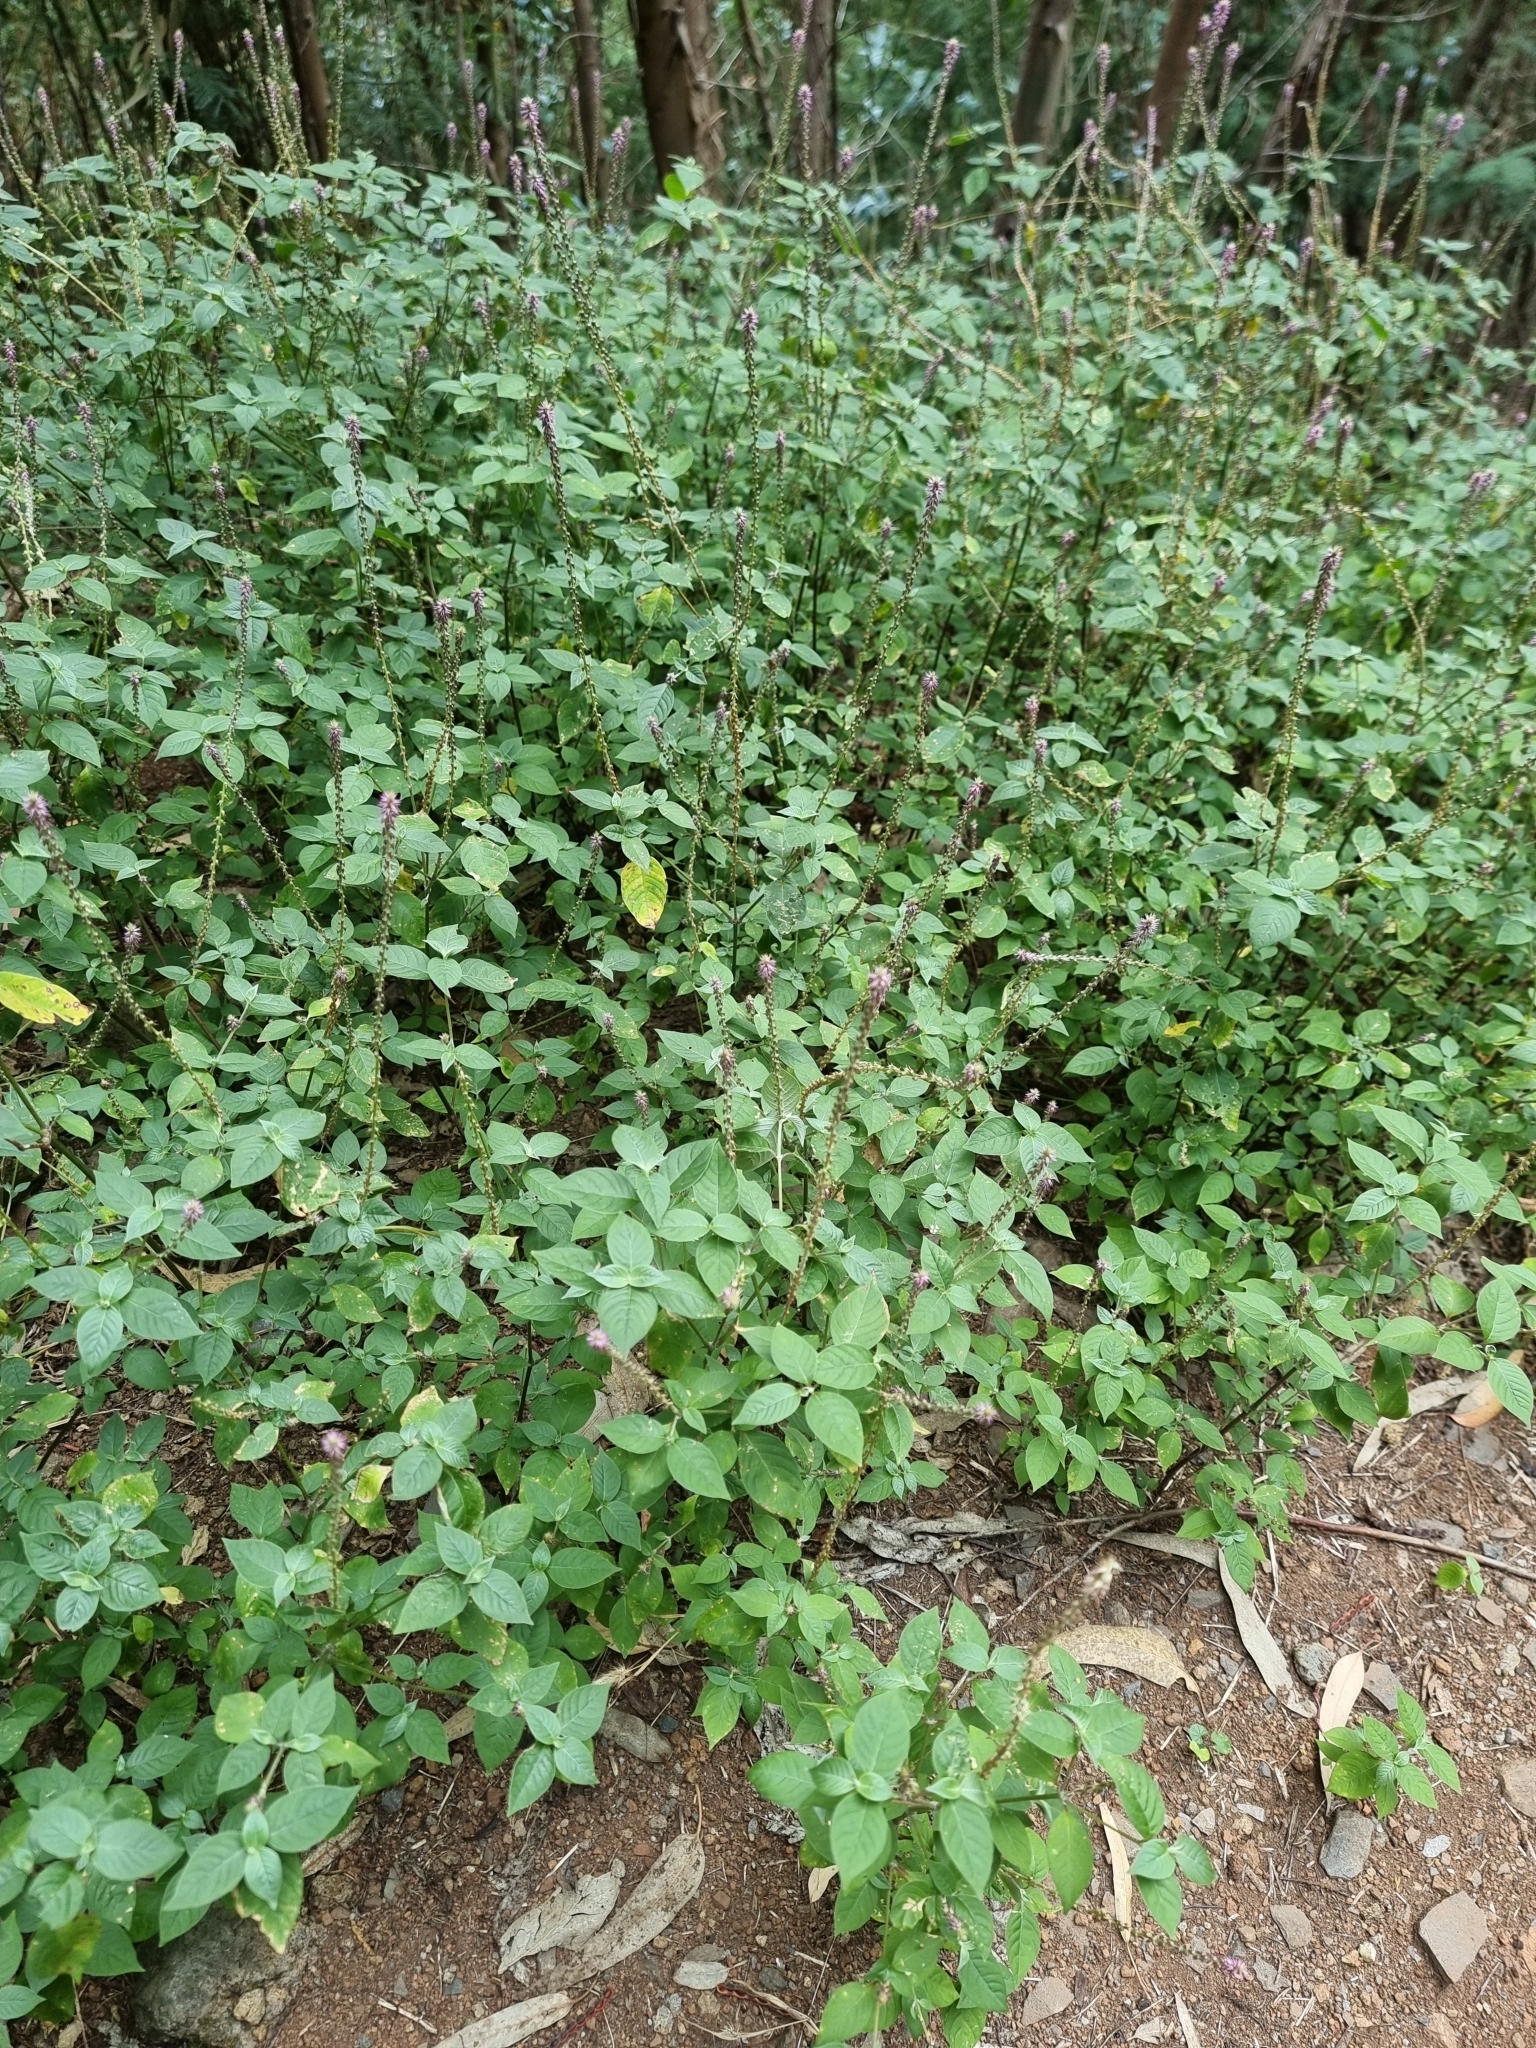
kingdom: Plantae
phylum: Tracheophyta
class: Magnoliopsida
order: Caryophyllales
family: Amaranthaceae
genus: Achyranthes
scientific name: Achyranthes aspera
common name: Devil's horsewhip
